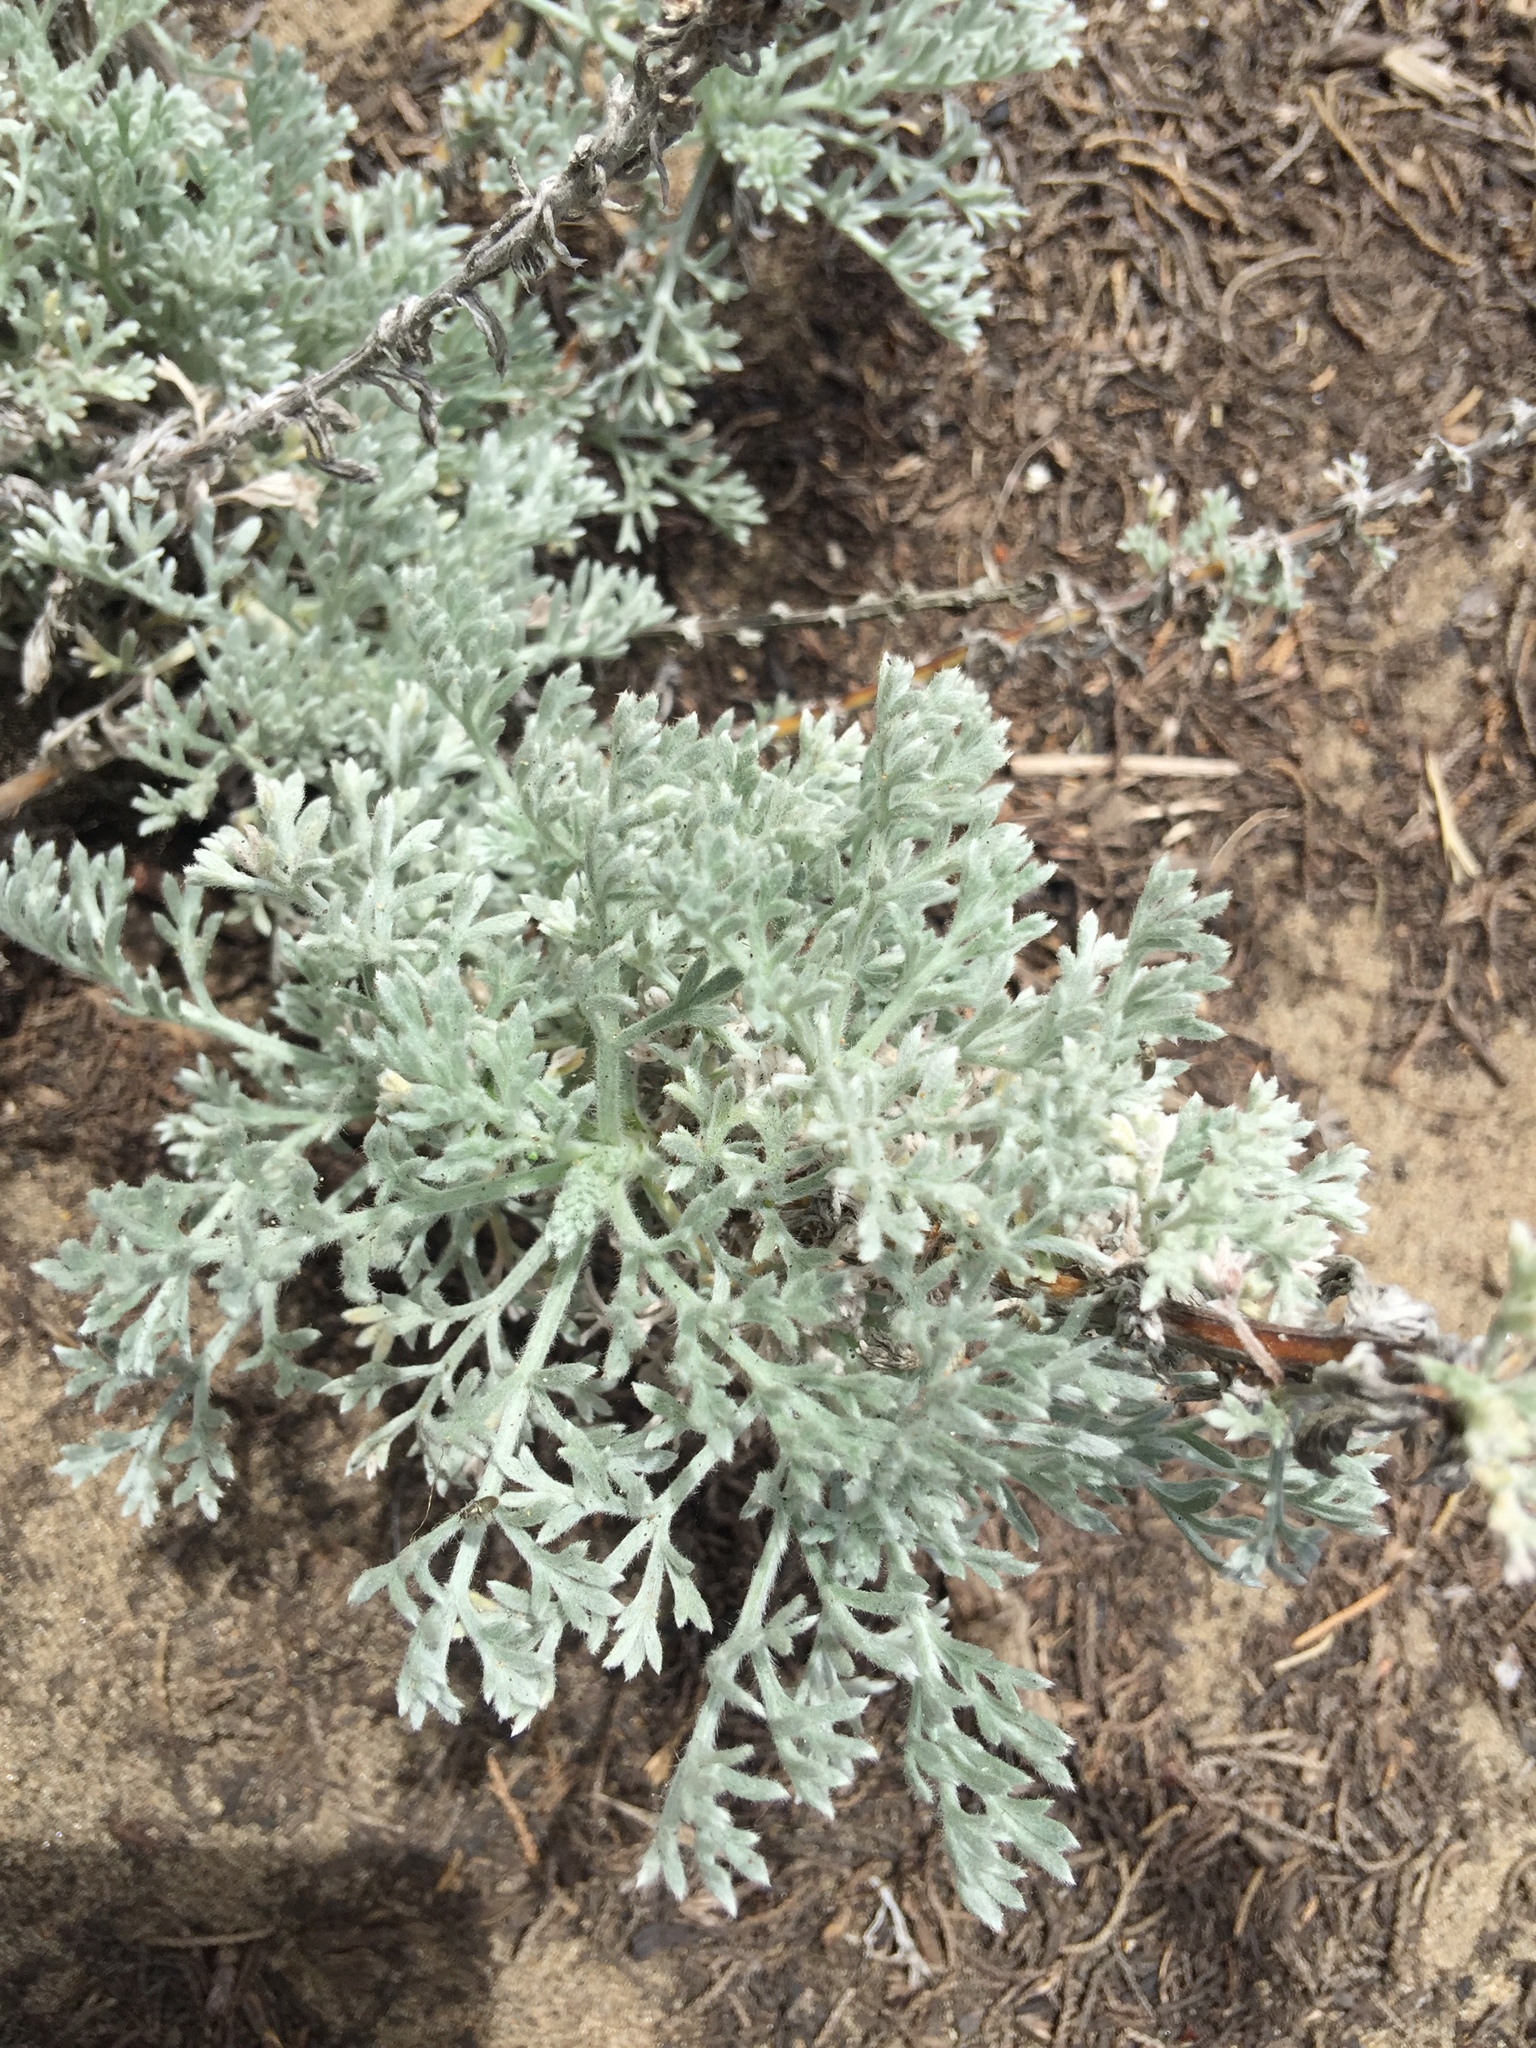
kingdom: Plantae
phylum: Tracheophyta
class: Magnoliopsida
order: Asterales
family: Asteraceae
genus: Artemisia
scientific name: Artemisia pycnocephala
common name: Coastal sagewort
